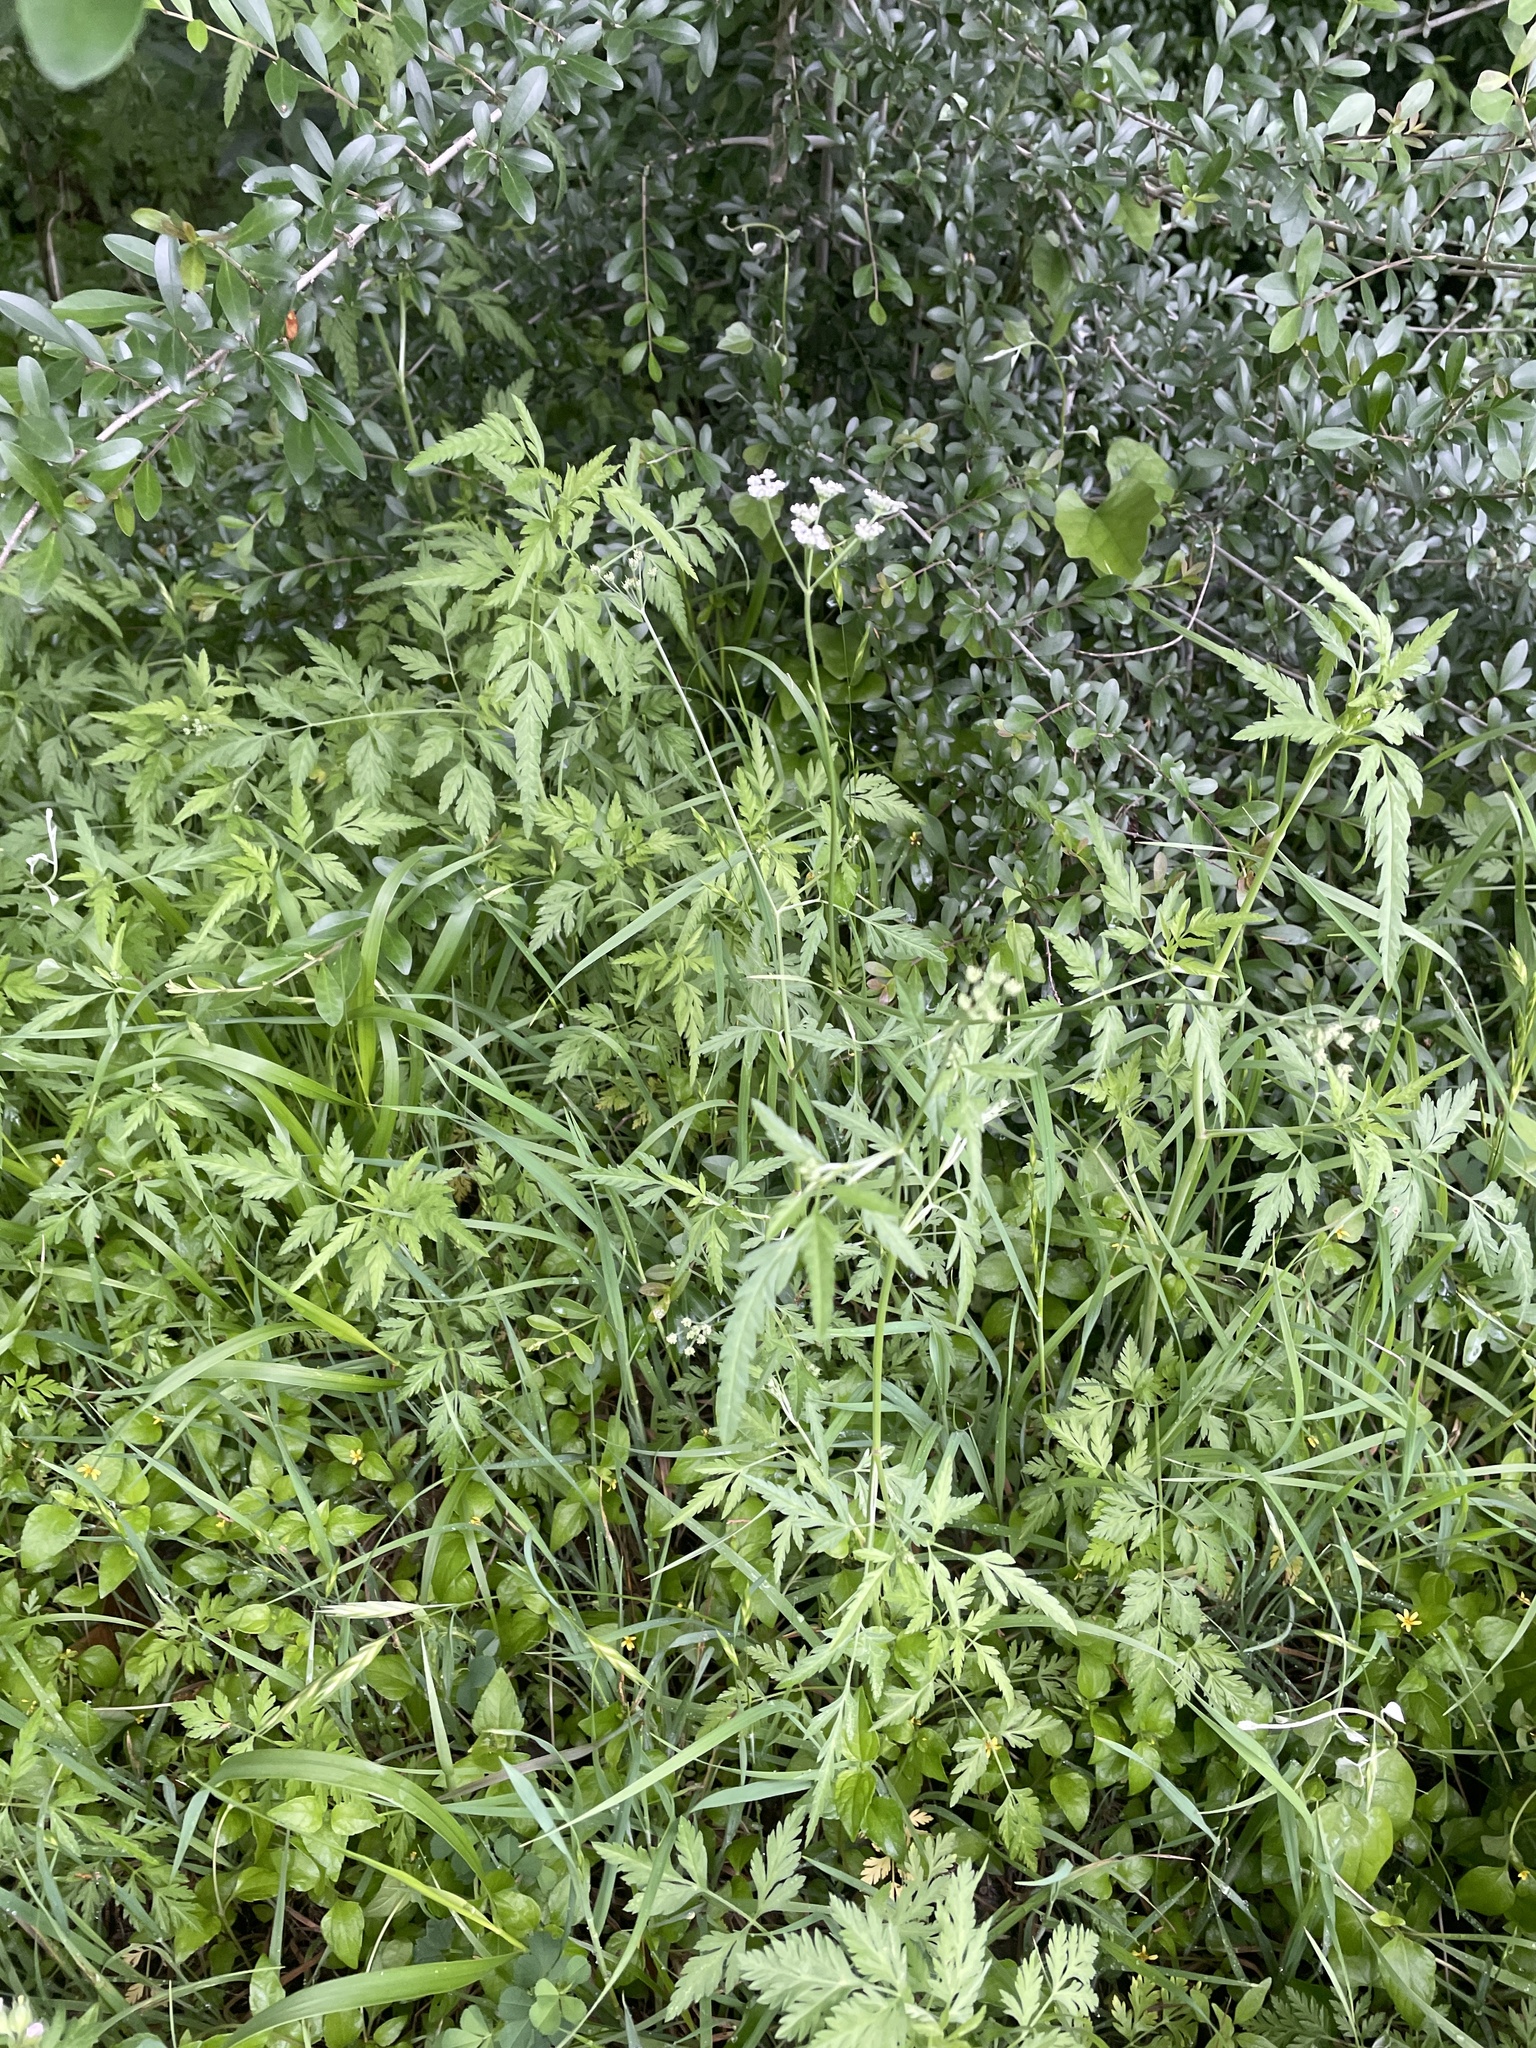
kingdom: Plantae
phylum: Tracheophyta
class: Magnoliopsida
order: Apiales
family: Apiaceae
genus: Torilis
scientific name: Torilis arvensis
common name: Spreading hedge-parsley
